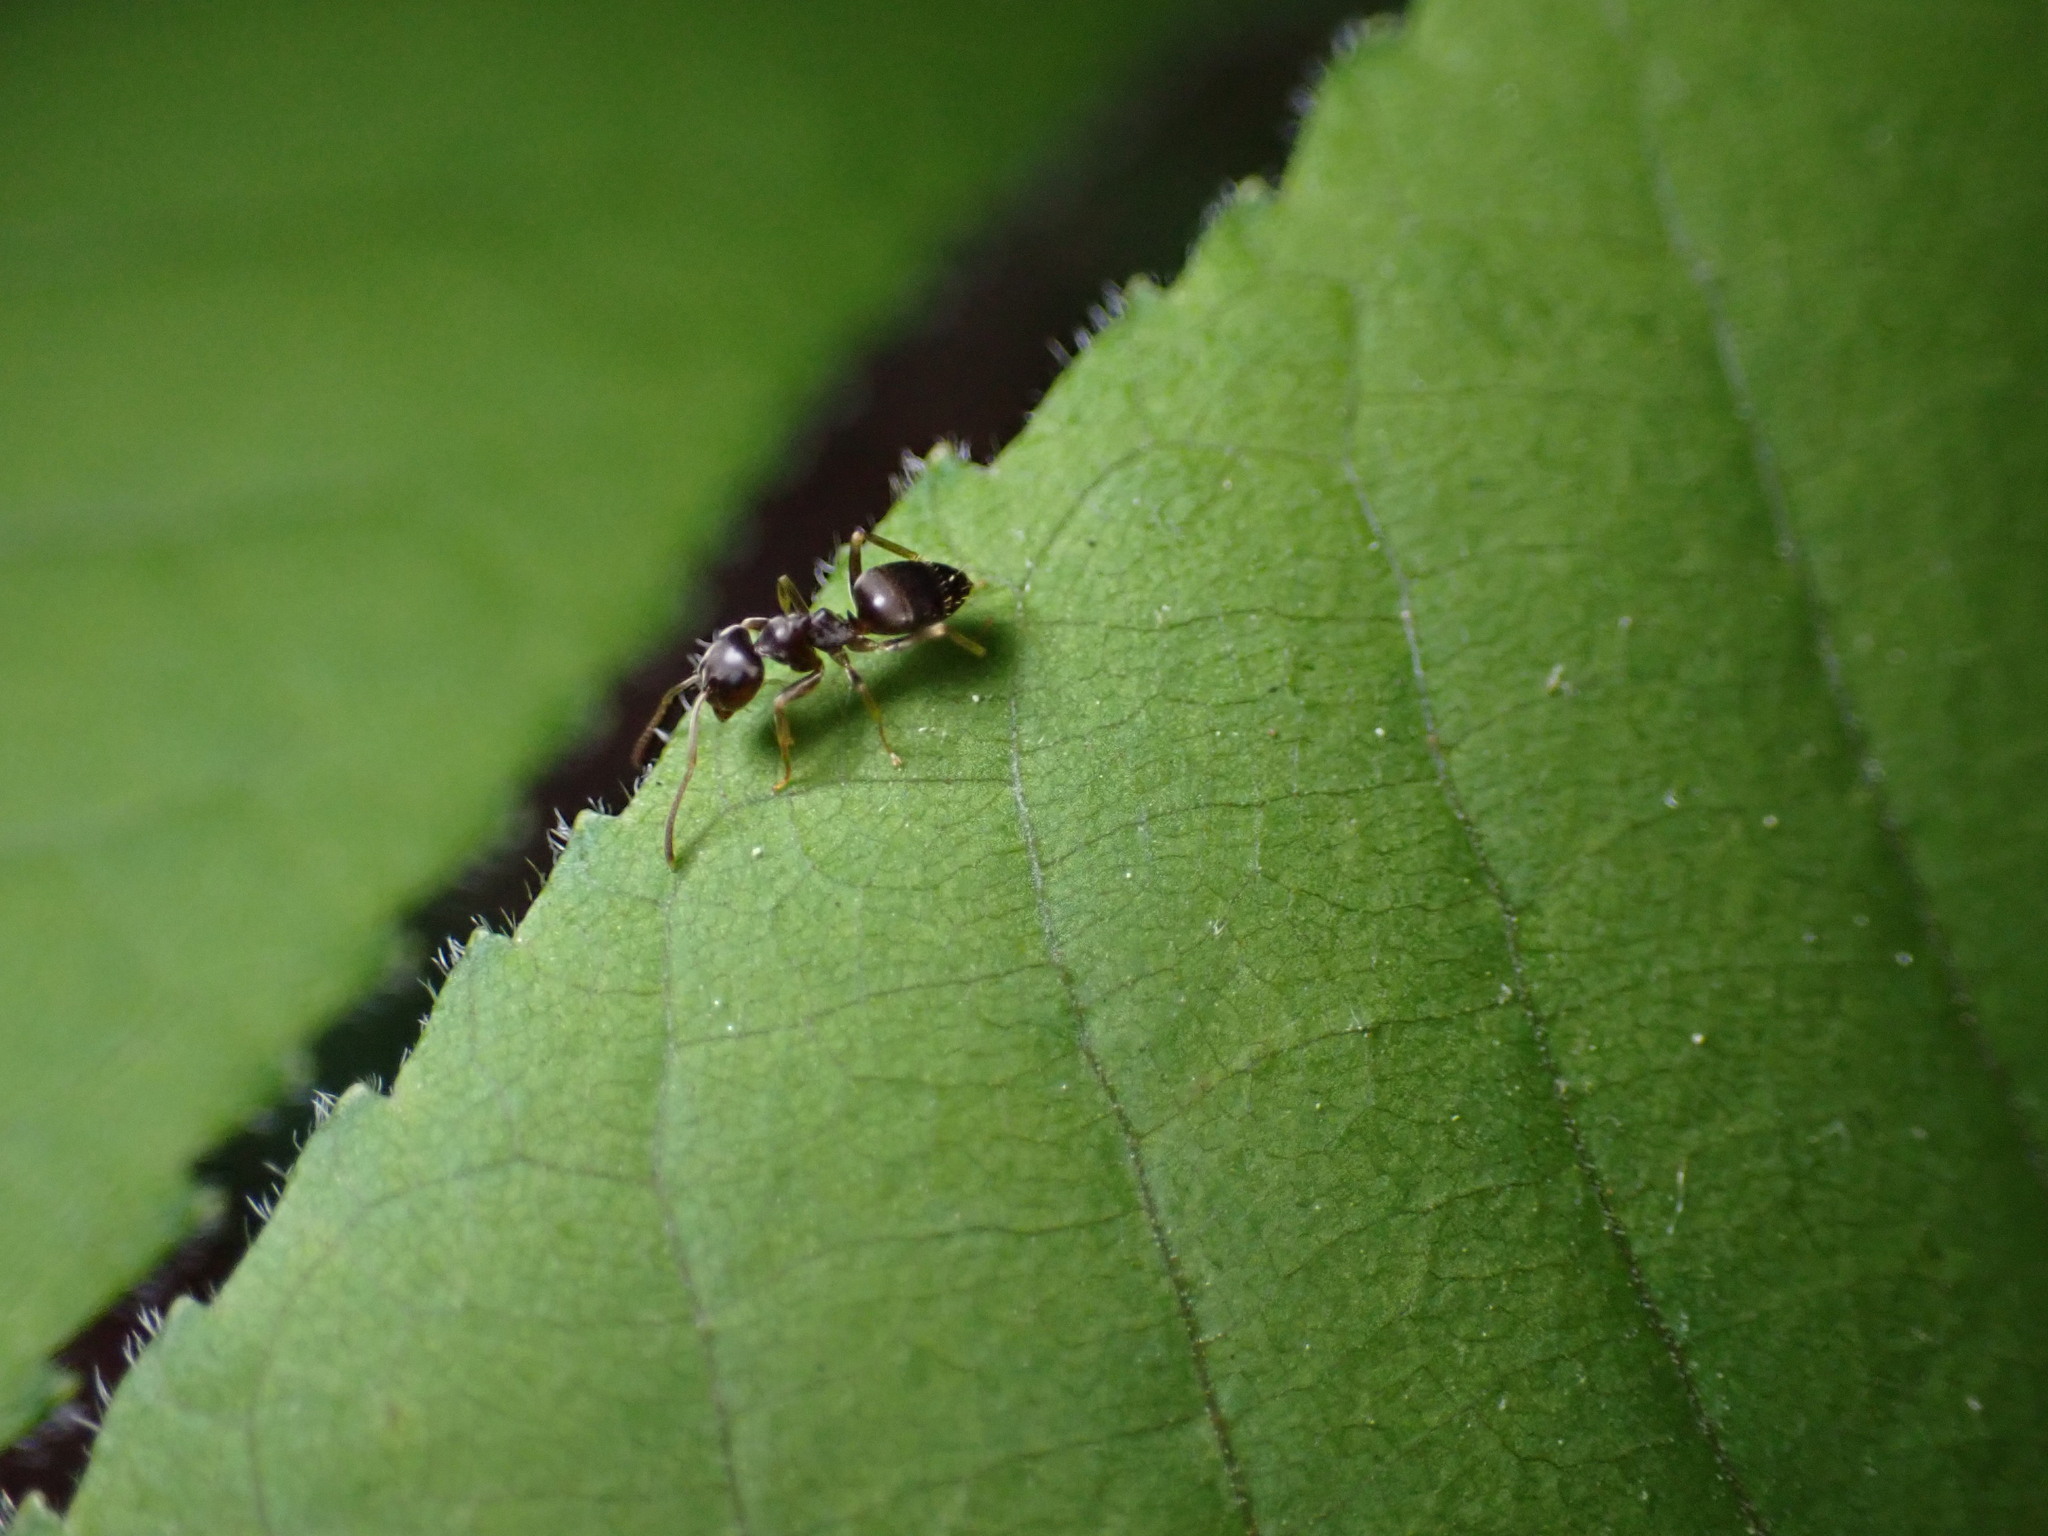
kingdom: Animalia
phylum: Arthropoda
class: Insecta
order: Hymenoptera
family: Formicidae
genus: Lasius
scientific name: Lasius americanus
